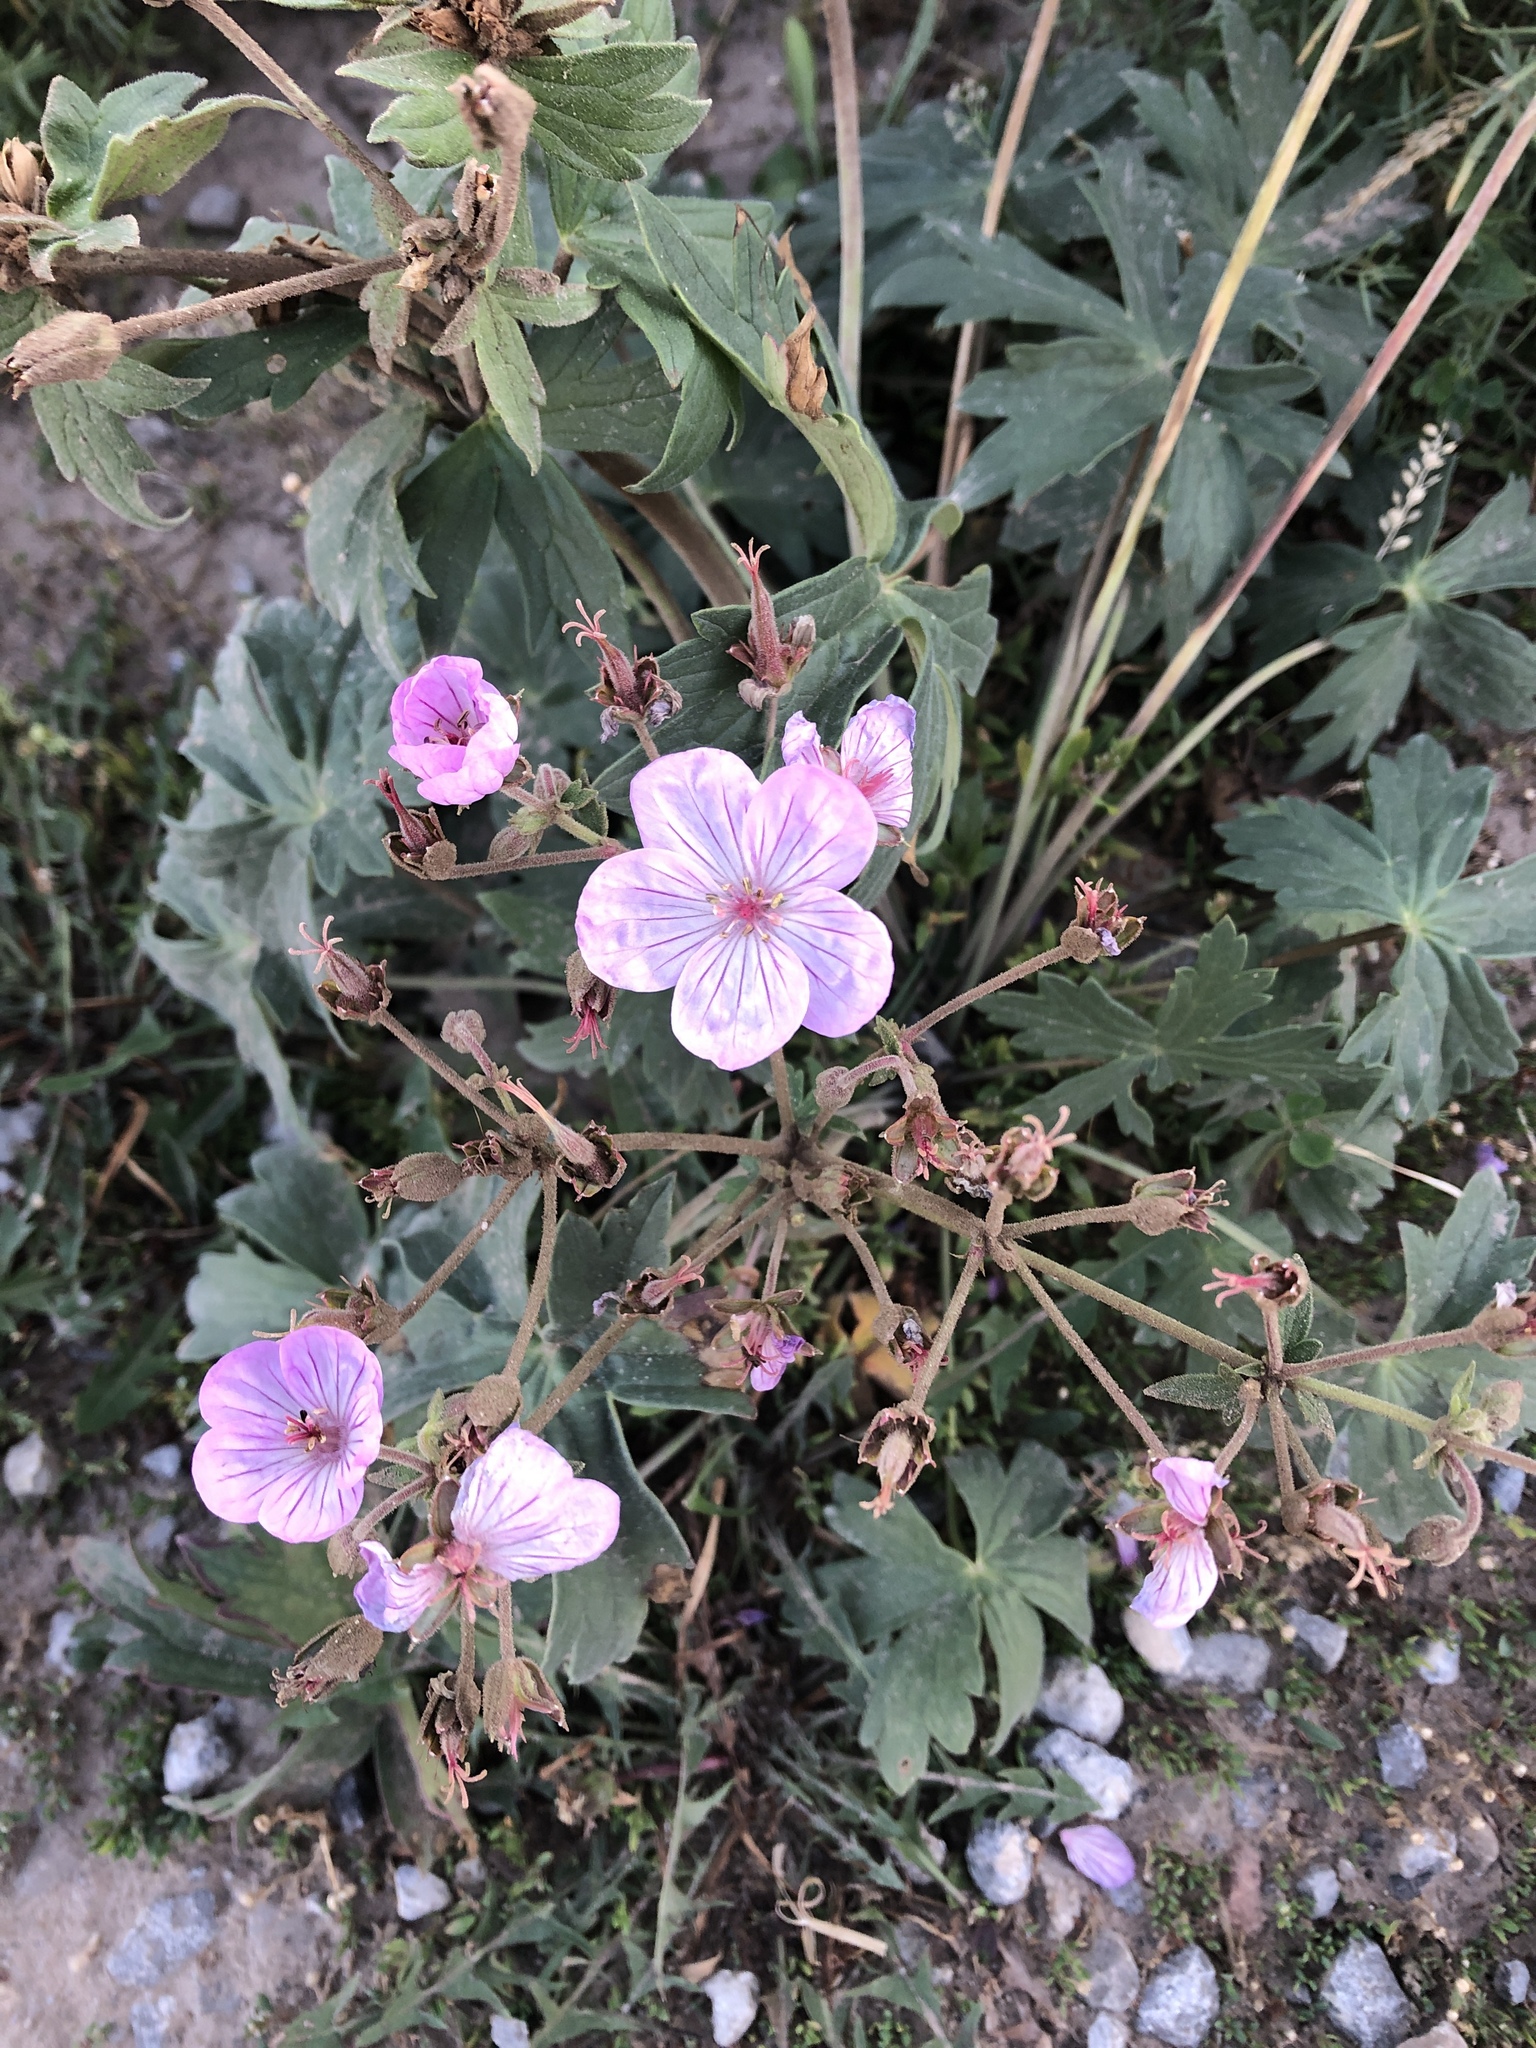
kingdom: Plantae
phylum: Tracheophyta
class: Magnoliopsida
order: Geraniales
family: Geraniaceae
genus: Geranium
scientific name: Geranium viscosissimum
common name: Purple geranium
